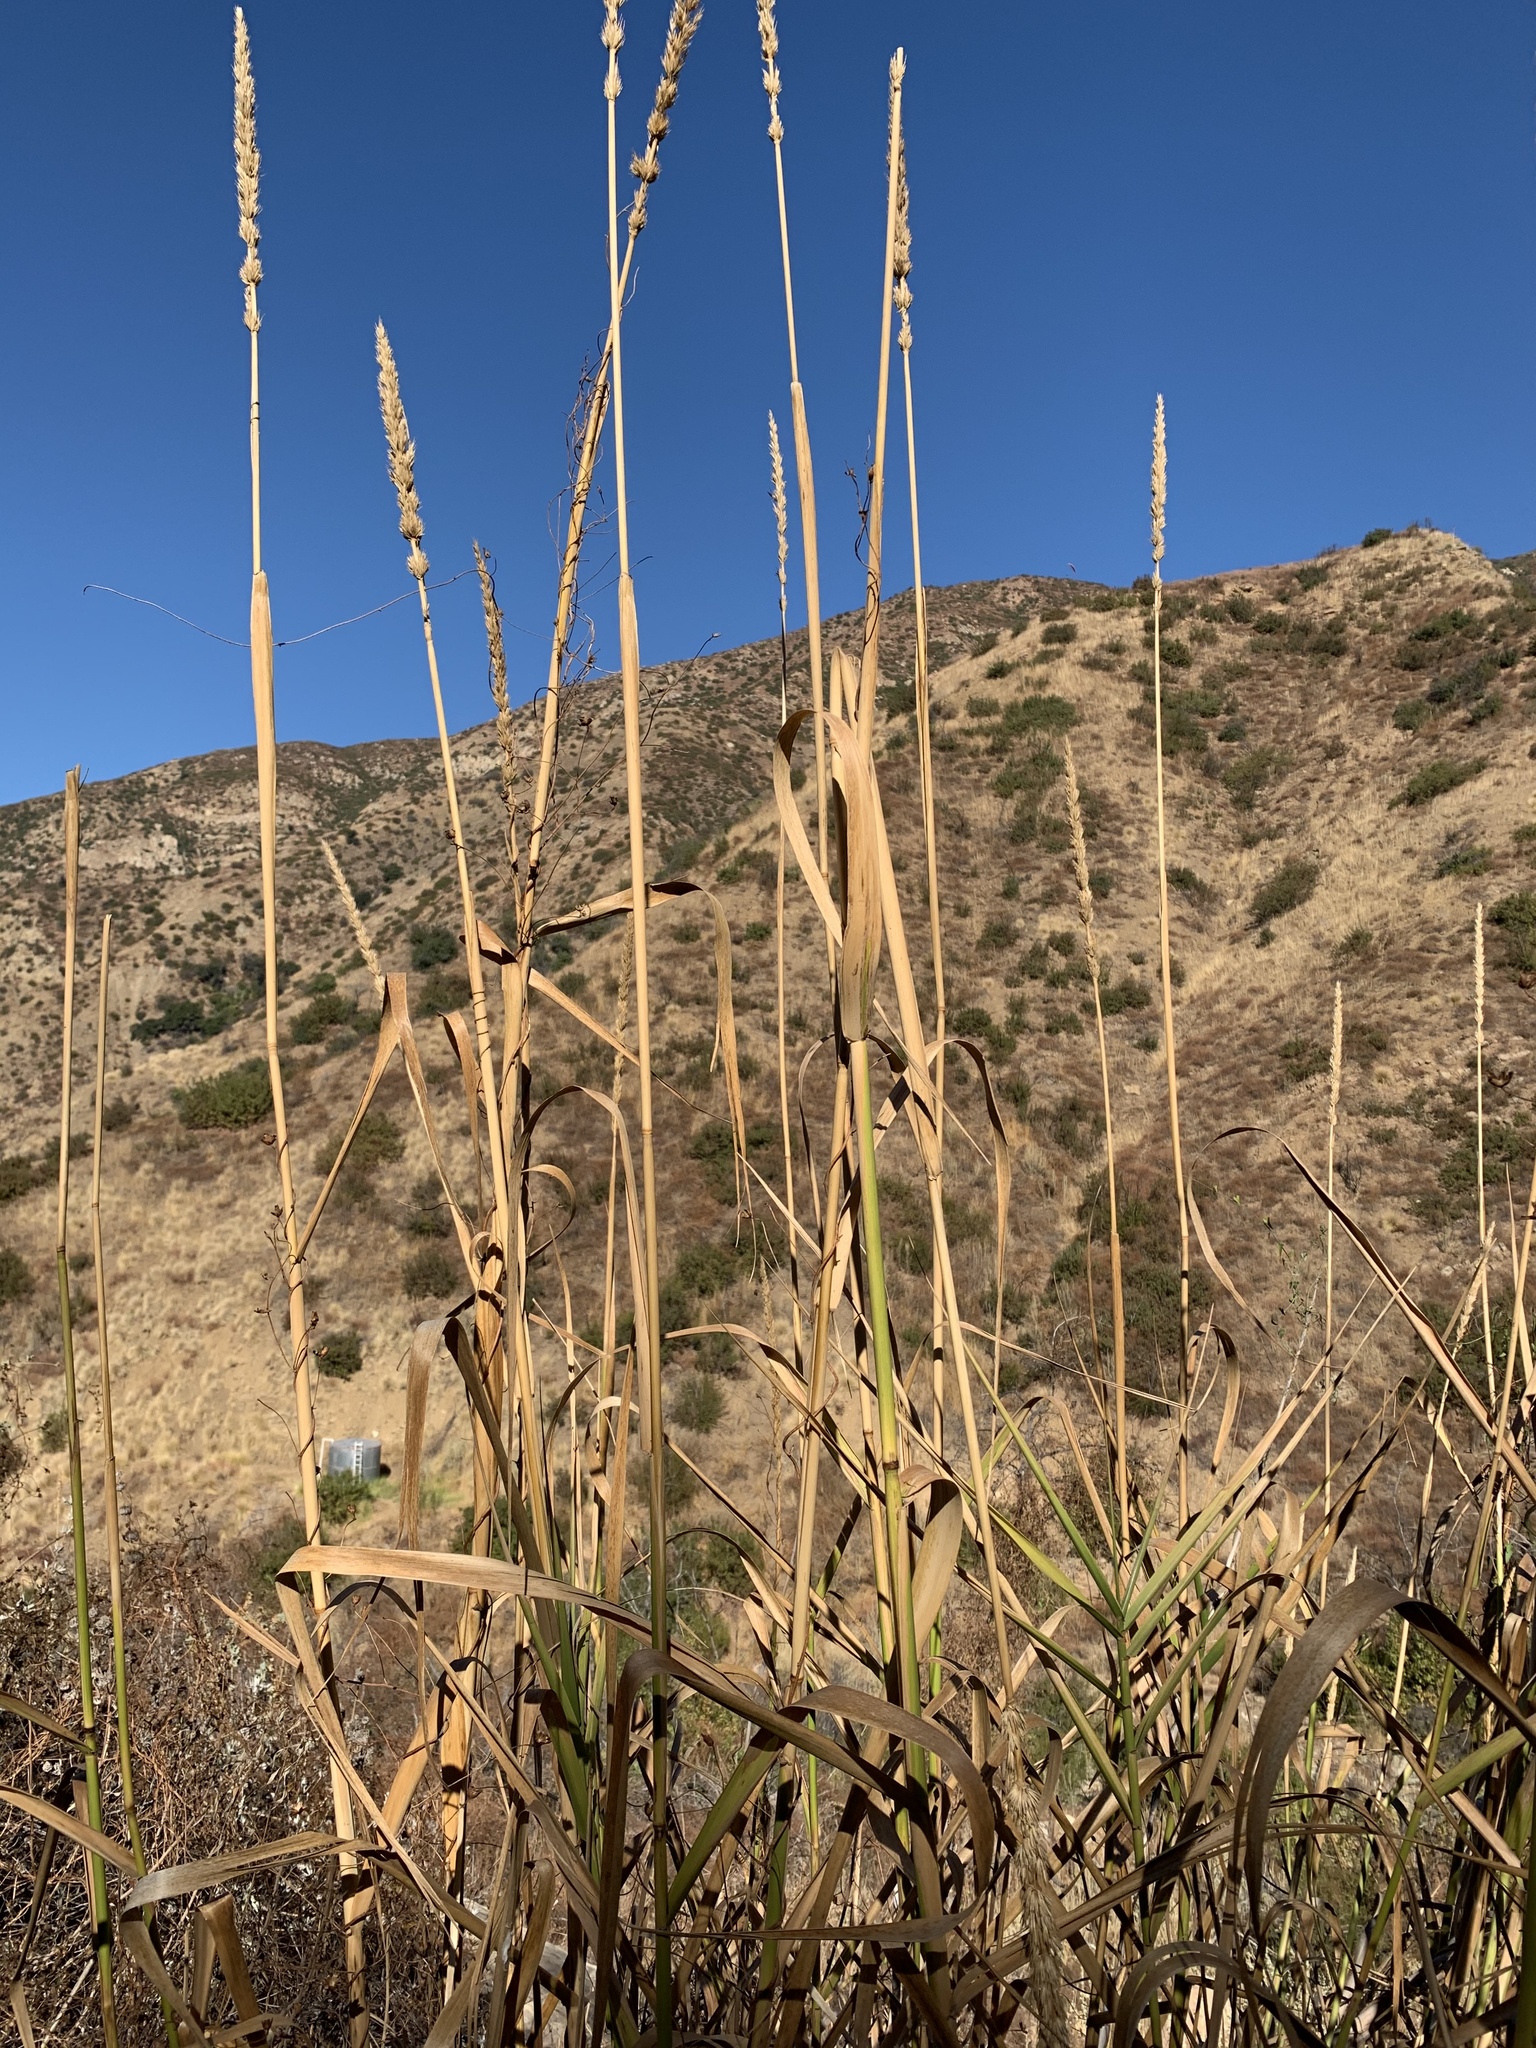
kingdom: Plantae
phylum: Tracheophyta
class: Liliopsida
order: Poales
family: Poaceae
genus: Leymus
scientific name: Leymus condensatus
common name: Giant wild rye
